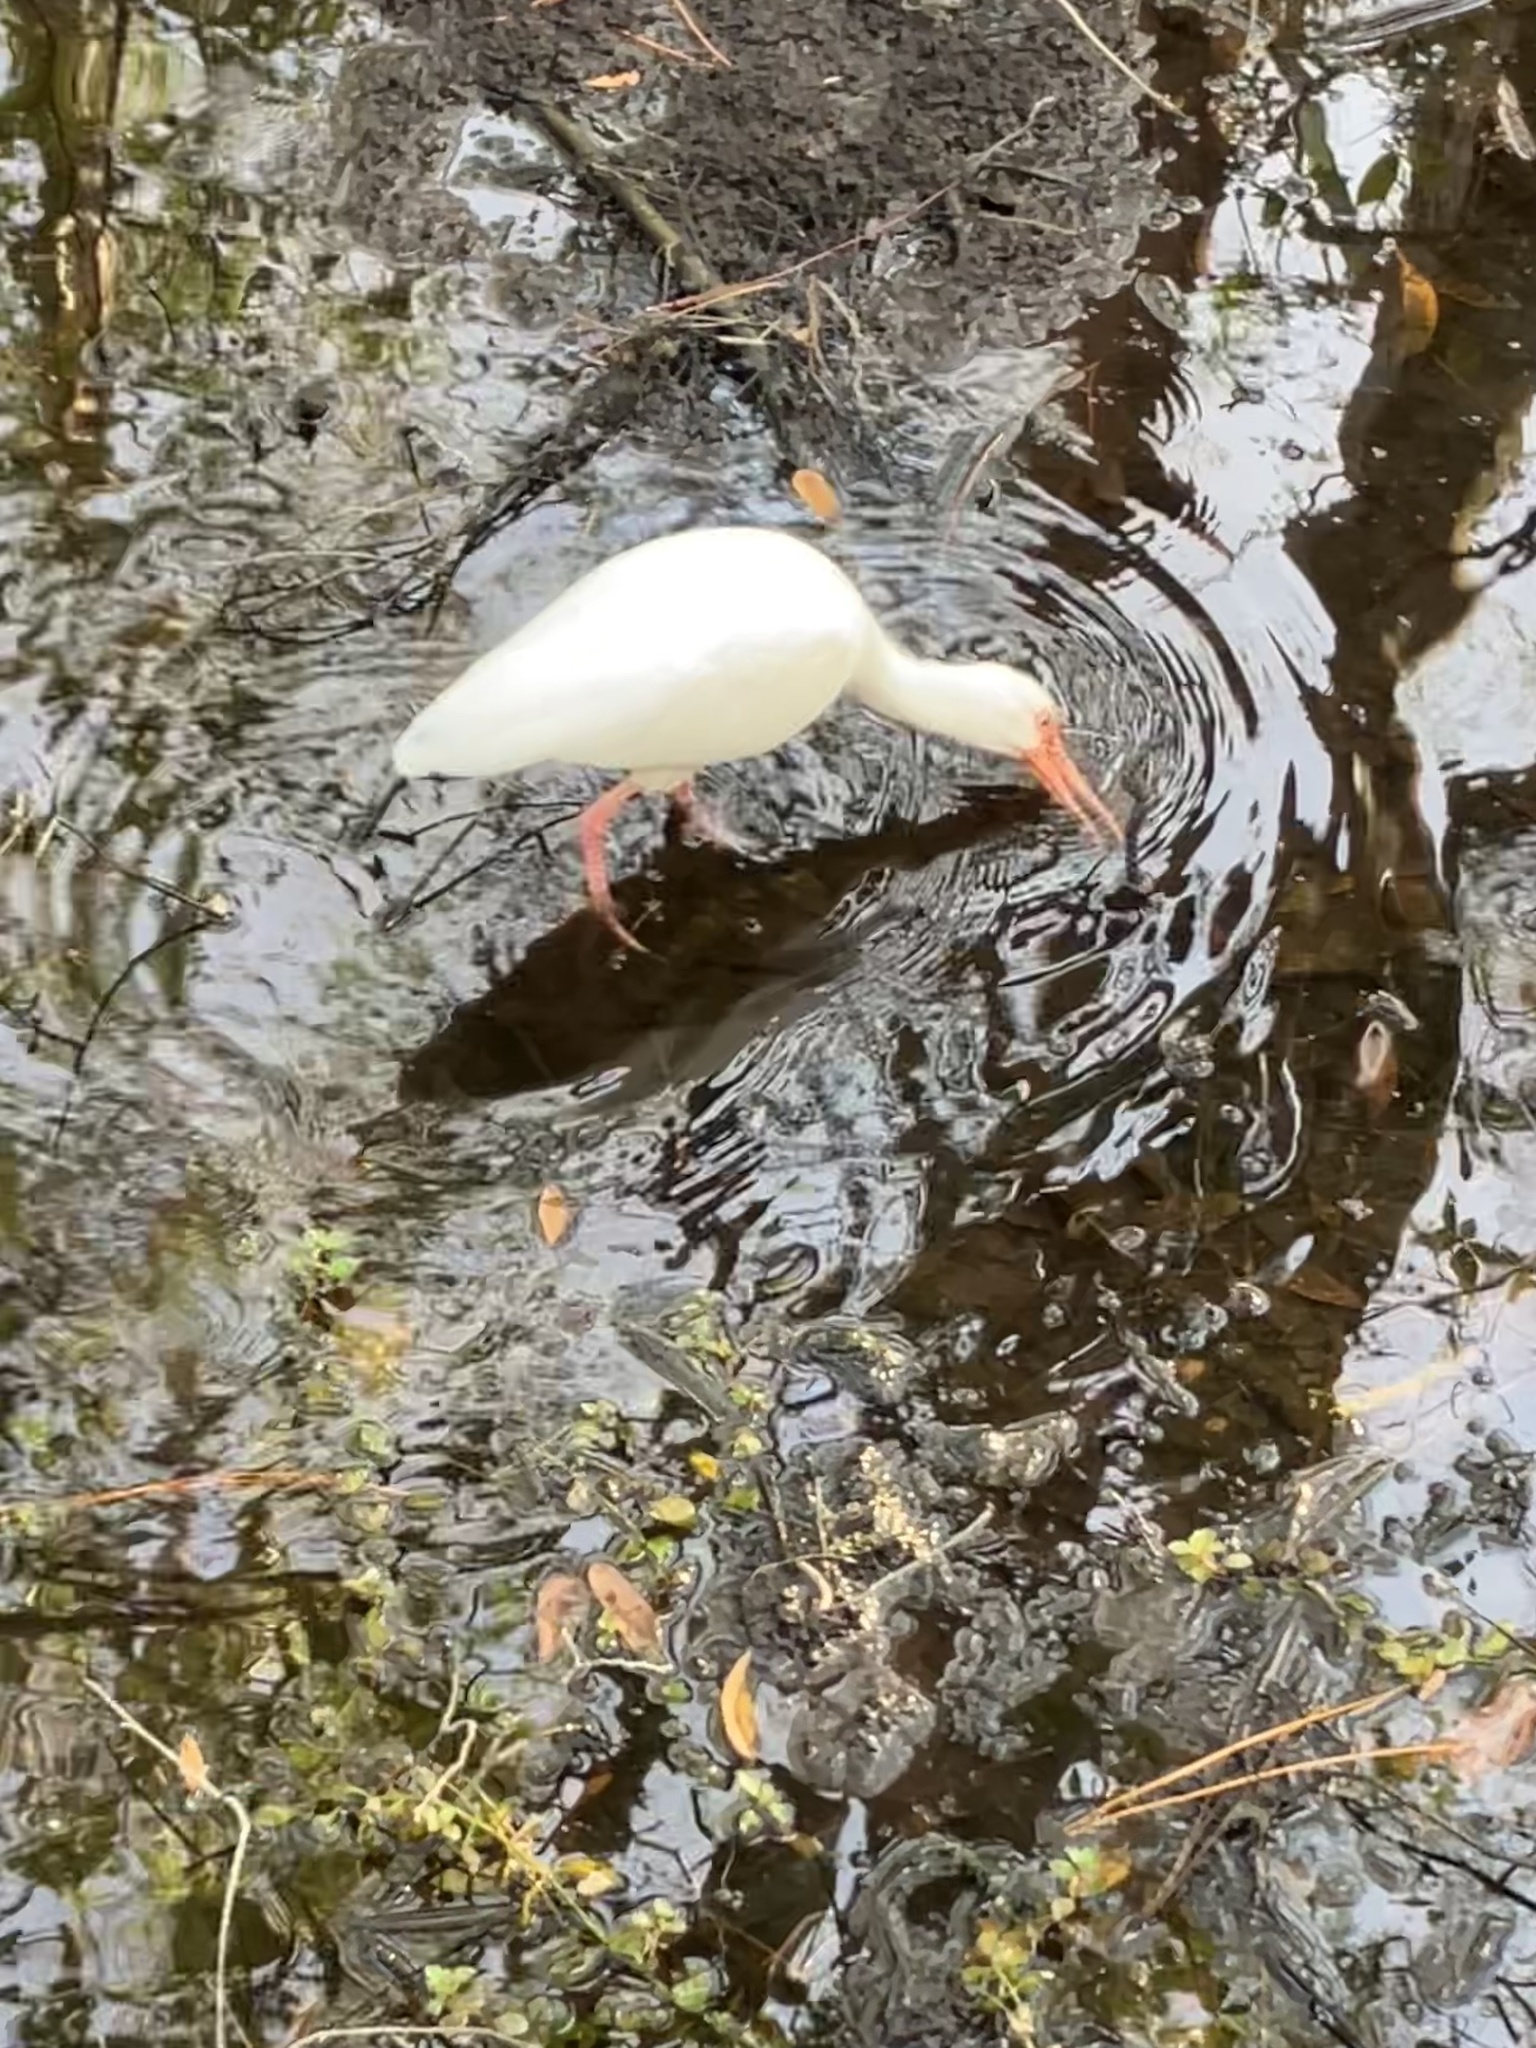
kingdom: Animalia
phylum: Chordata
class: Aves
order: Pelecaniformes
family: Threskiornithidae
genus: Eudocimus
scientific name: Eudocimus albus
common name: White ibis
